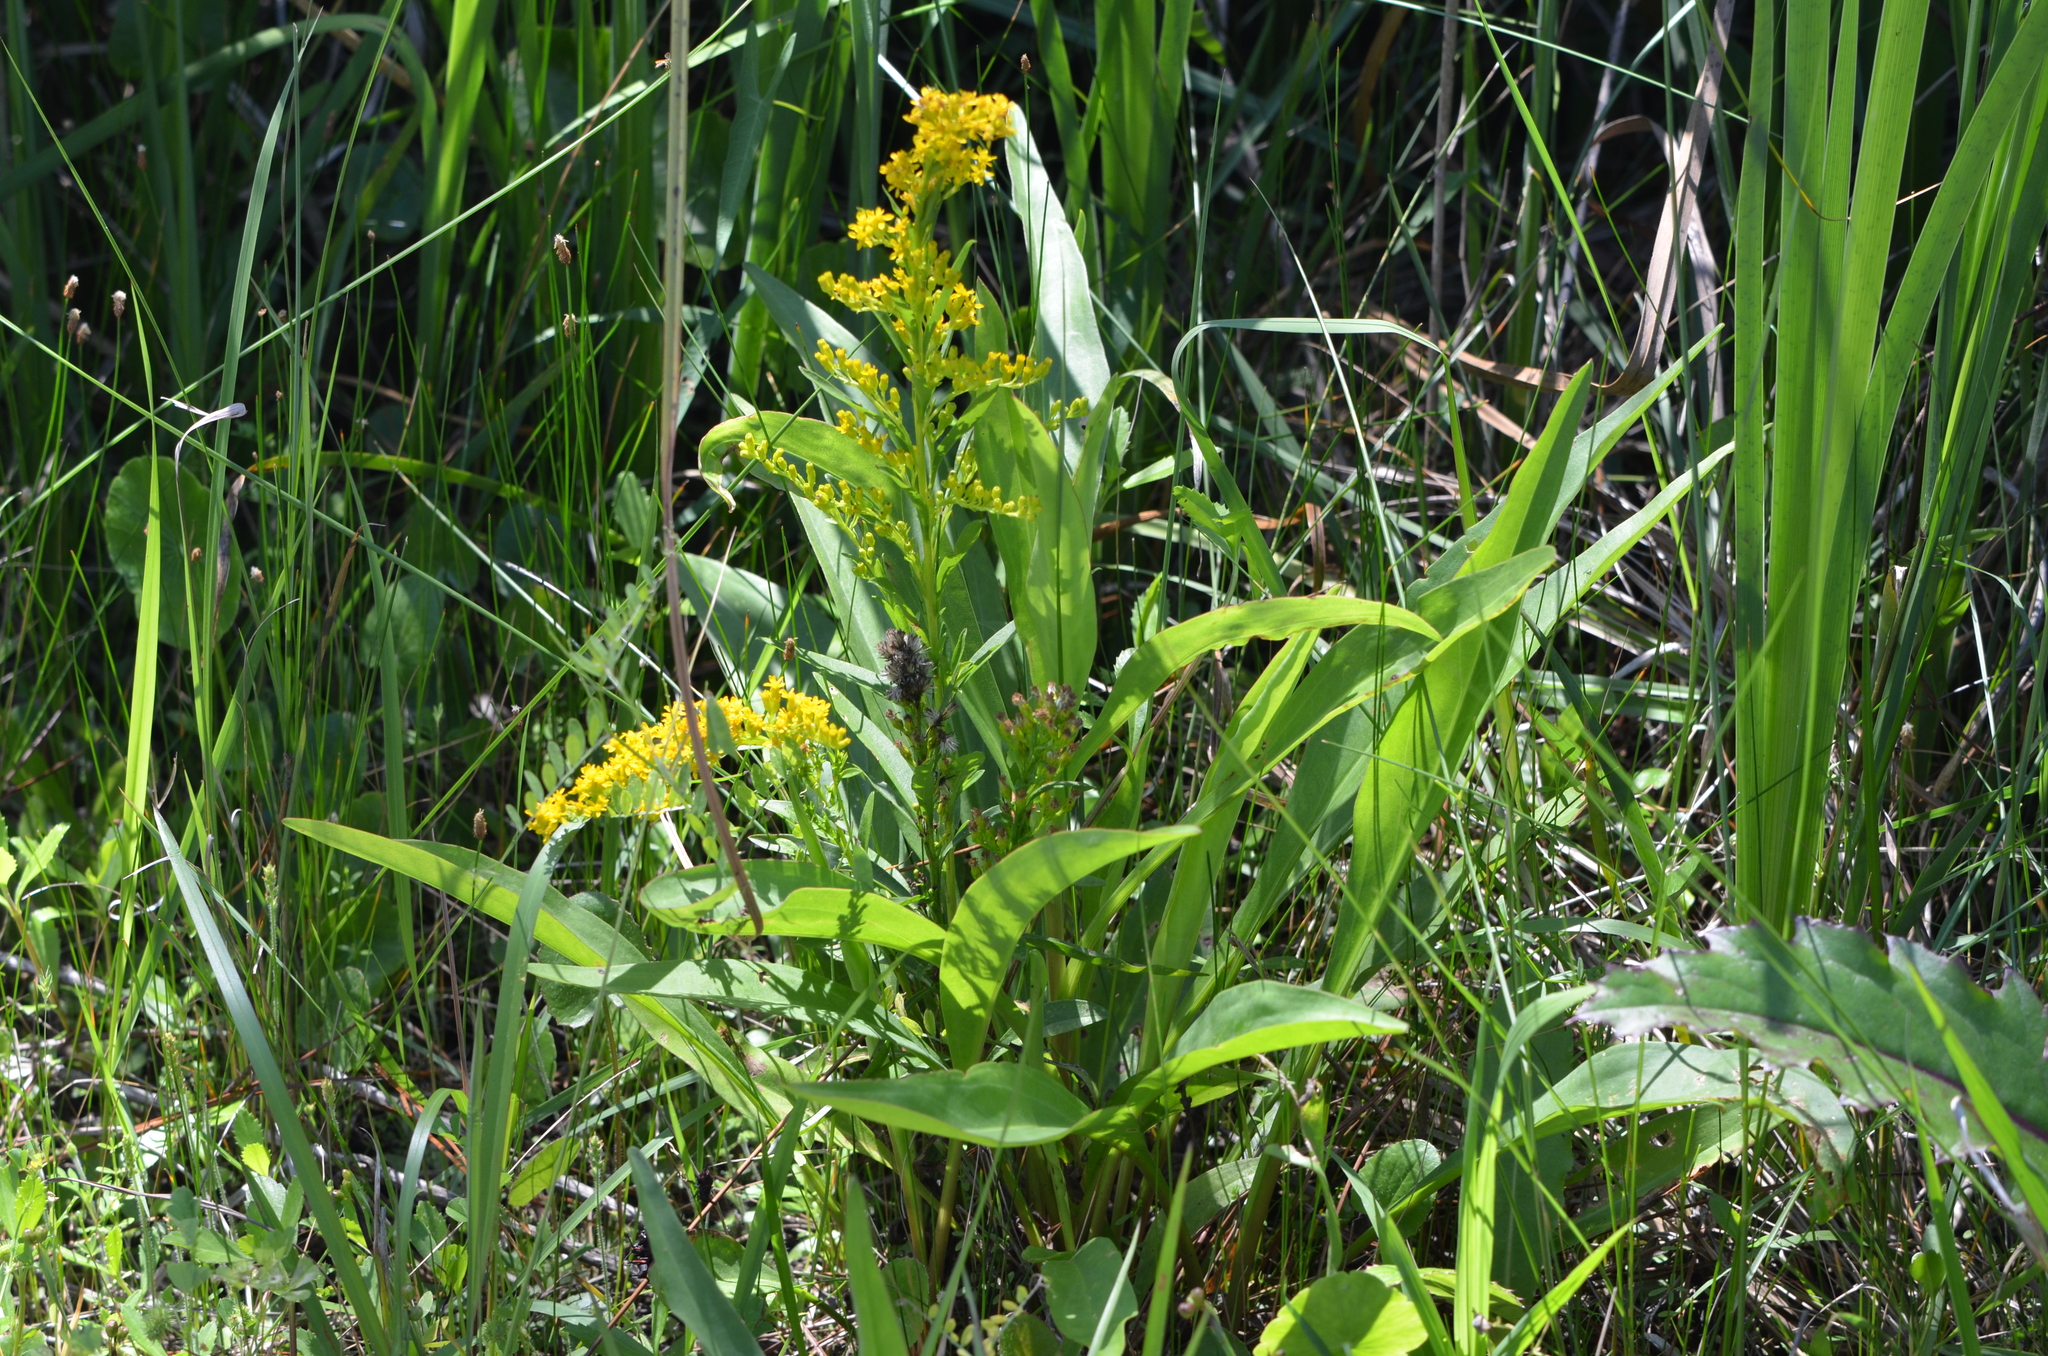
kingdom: Plantae
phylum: Tracheophyta
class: Magnoliopsida
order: Asterales
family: Asteraceae
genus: Solidago
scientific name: Solidago mexicana
